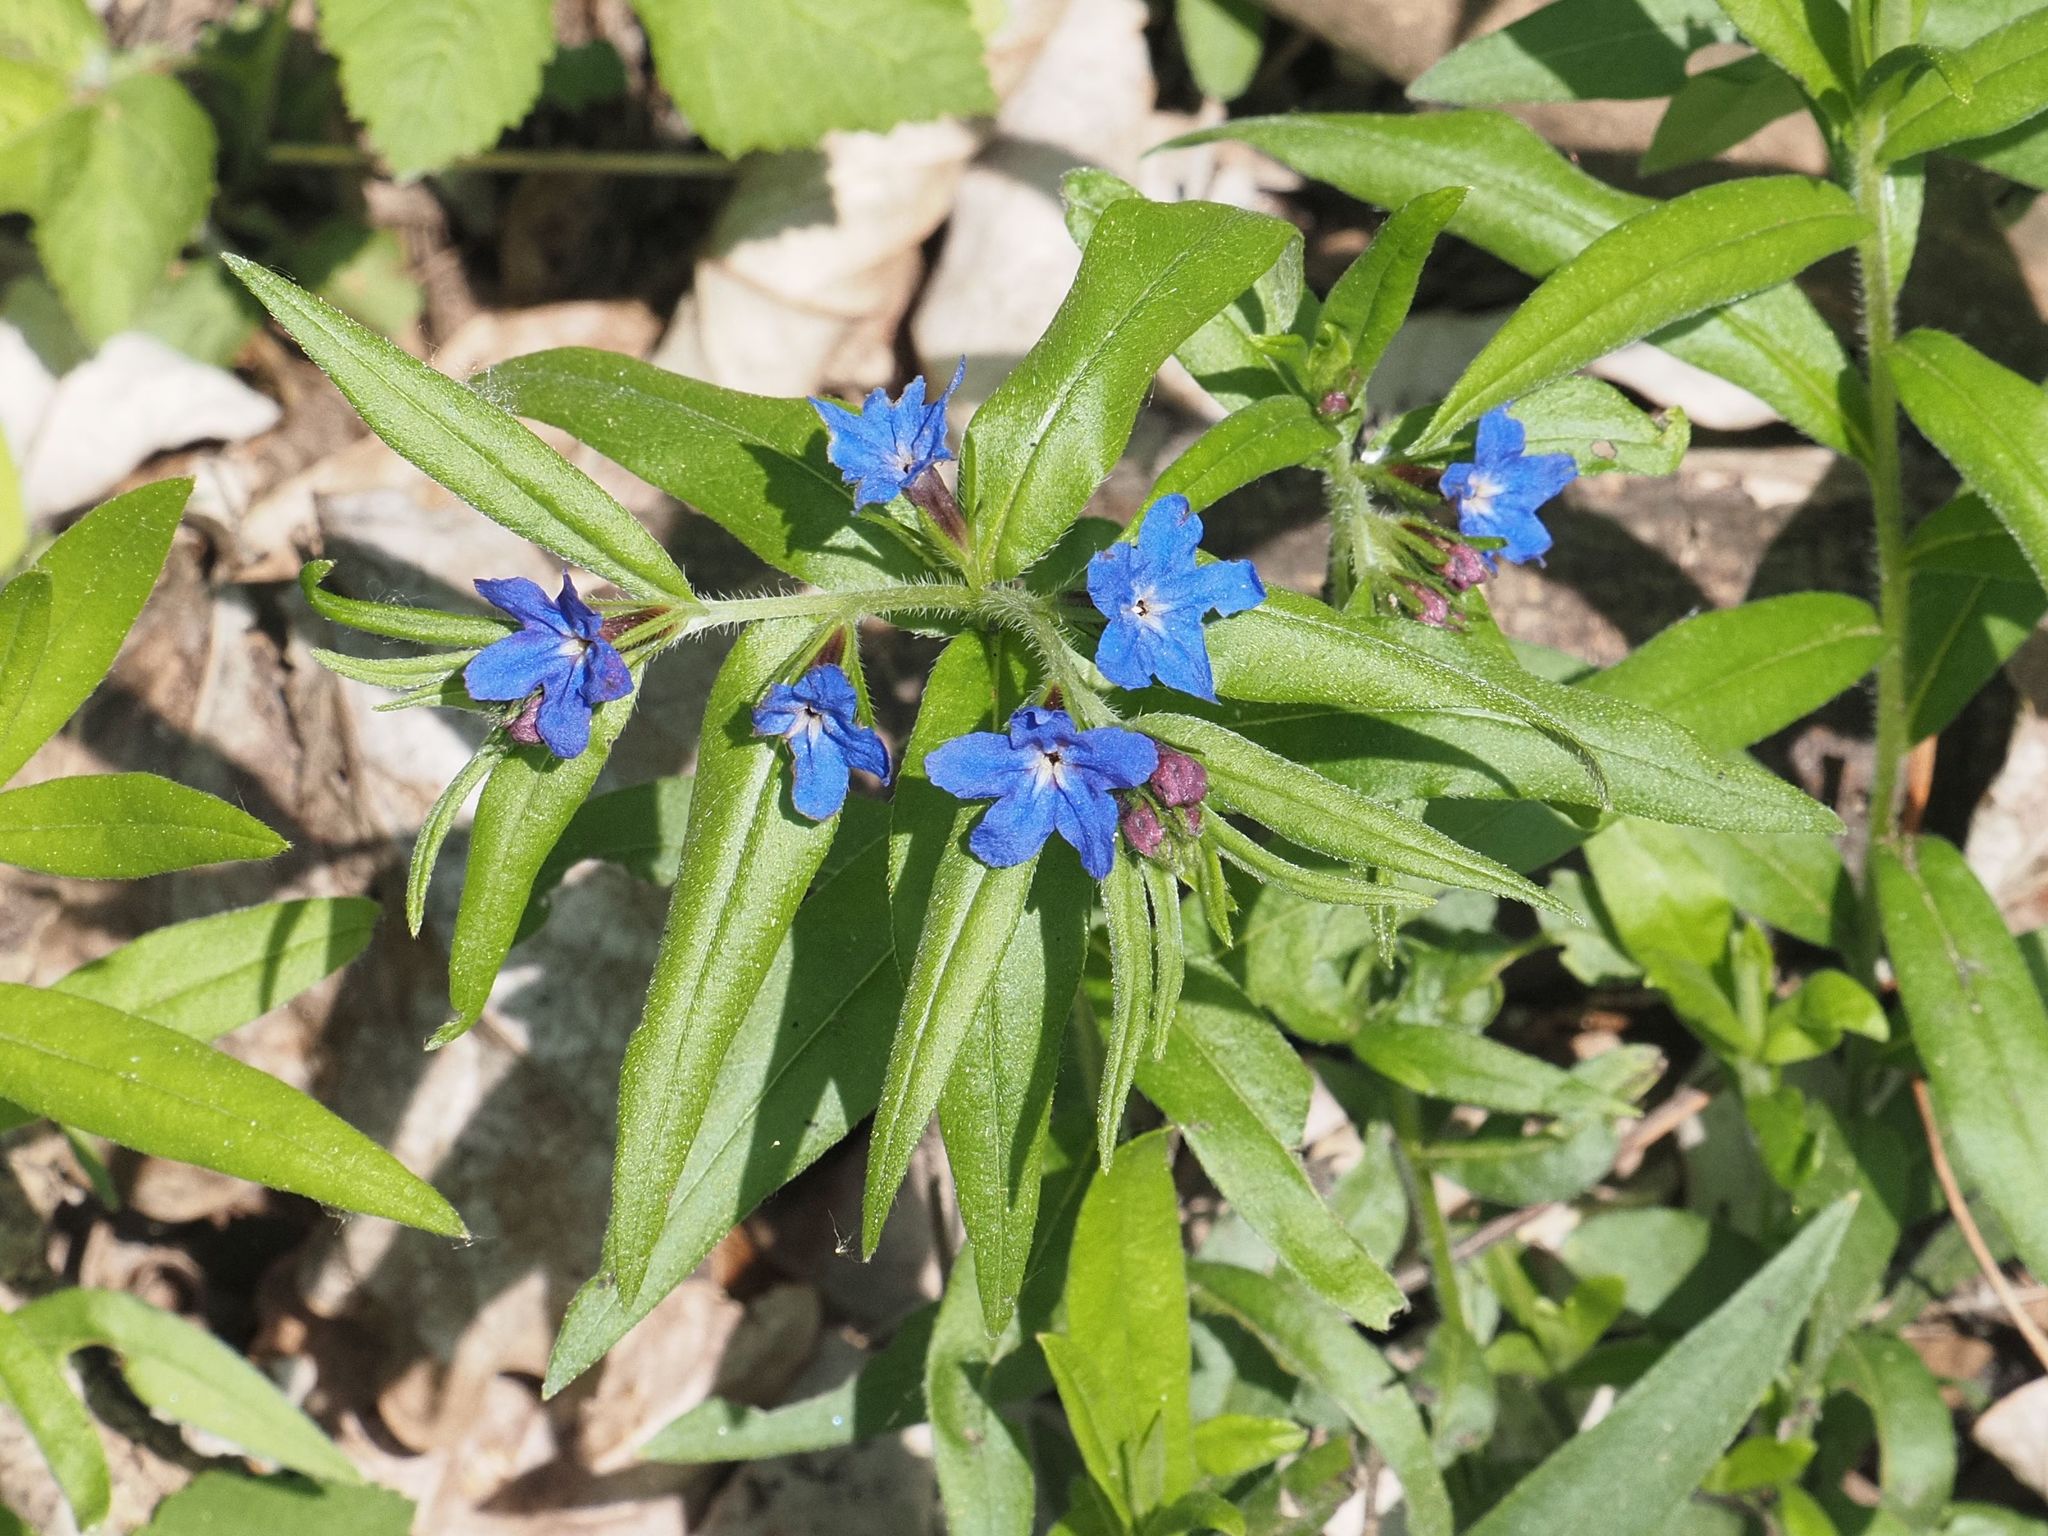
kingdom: Plantae
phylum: Tracheophyta
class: Magnoliopsida
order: Boraginales
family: Boraginaceae
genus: Aegonychon
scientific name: Aegonychon purpurocaeruleum
